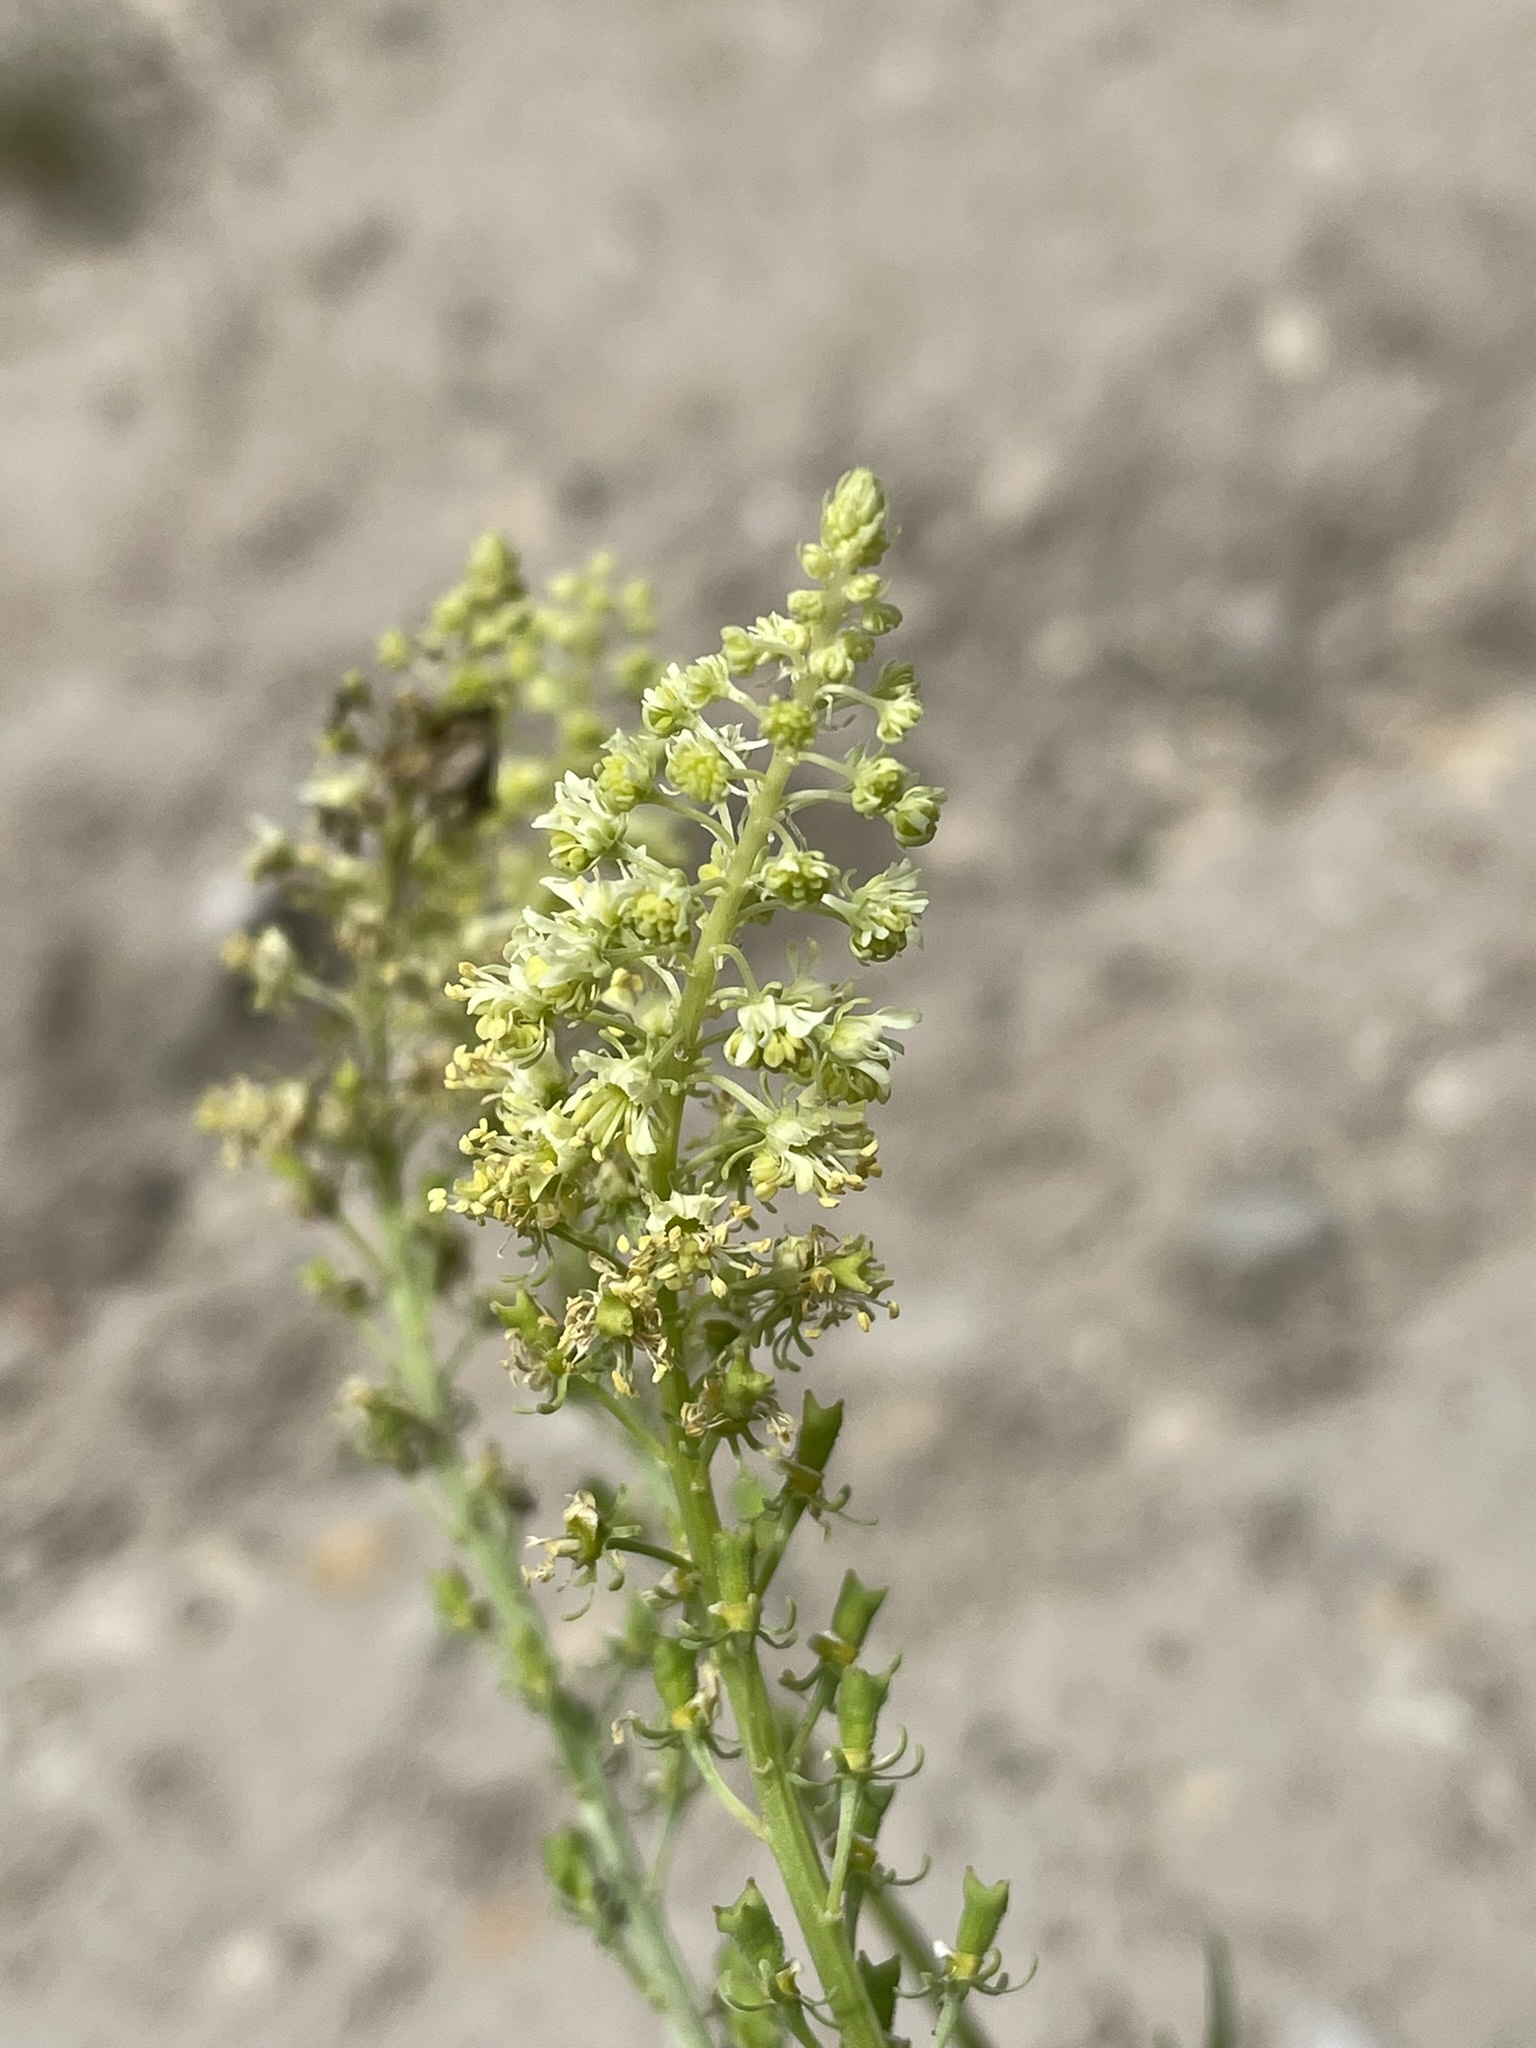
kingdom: Plantae
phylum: Tracheophyta
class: Magnoliopsida
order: Brassicales
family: Resedaceae
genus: Reseda
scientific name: Reseda lutea
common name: Wild mignonette
